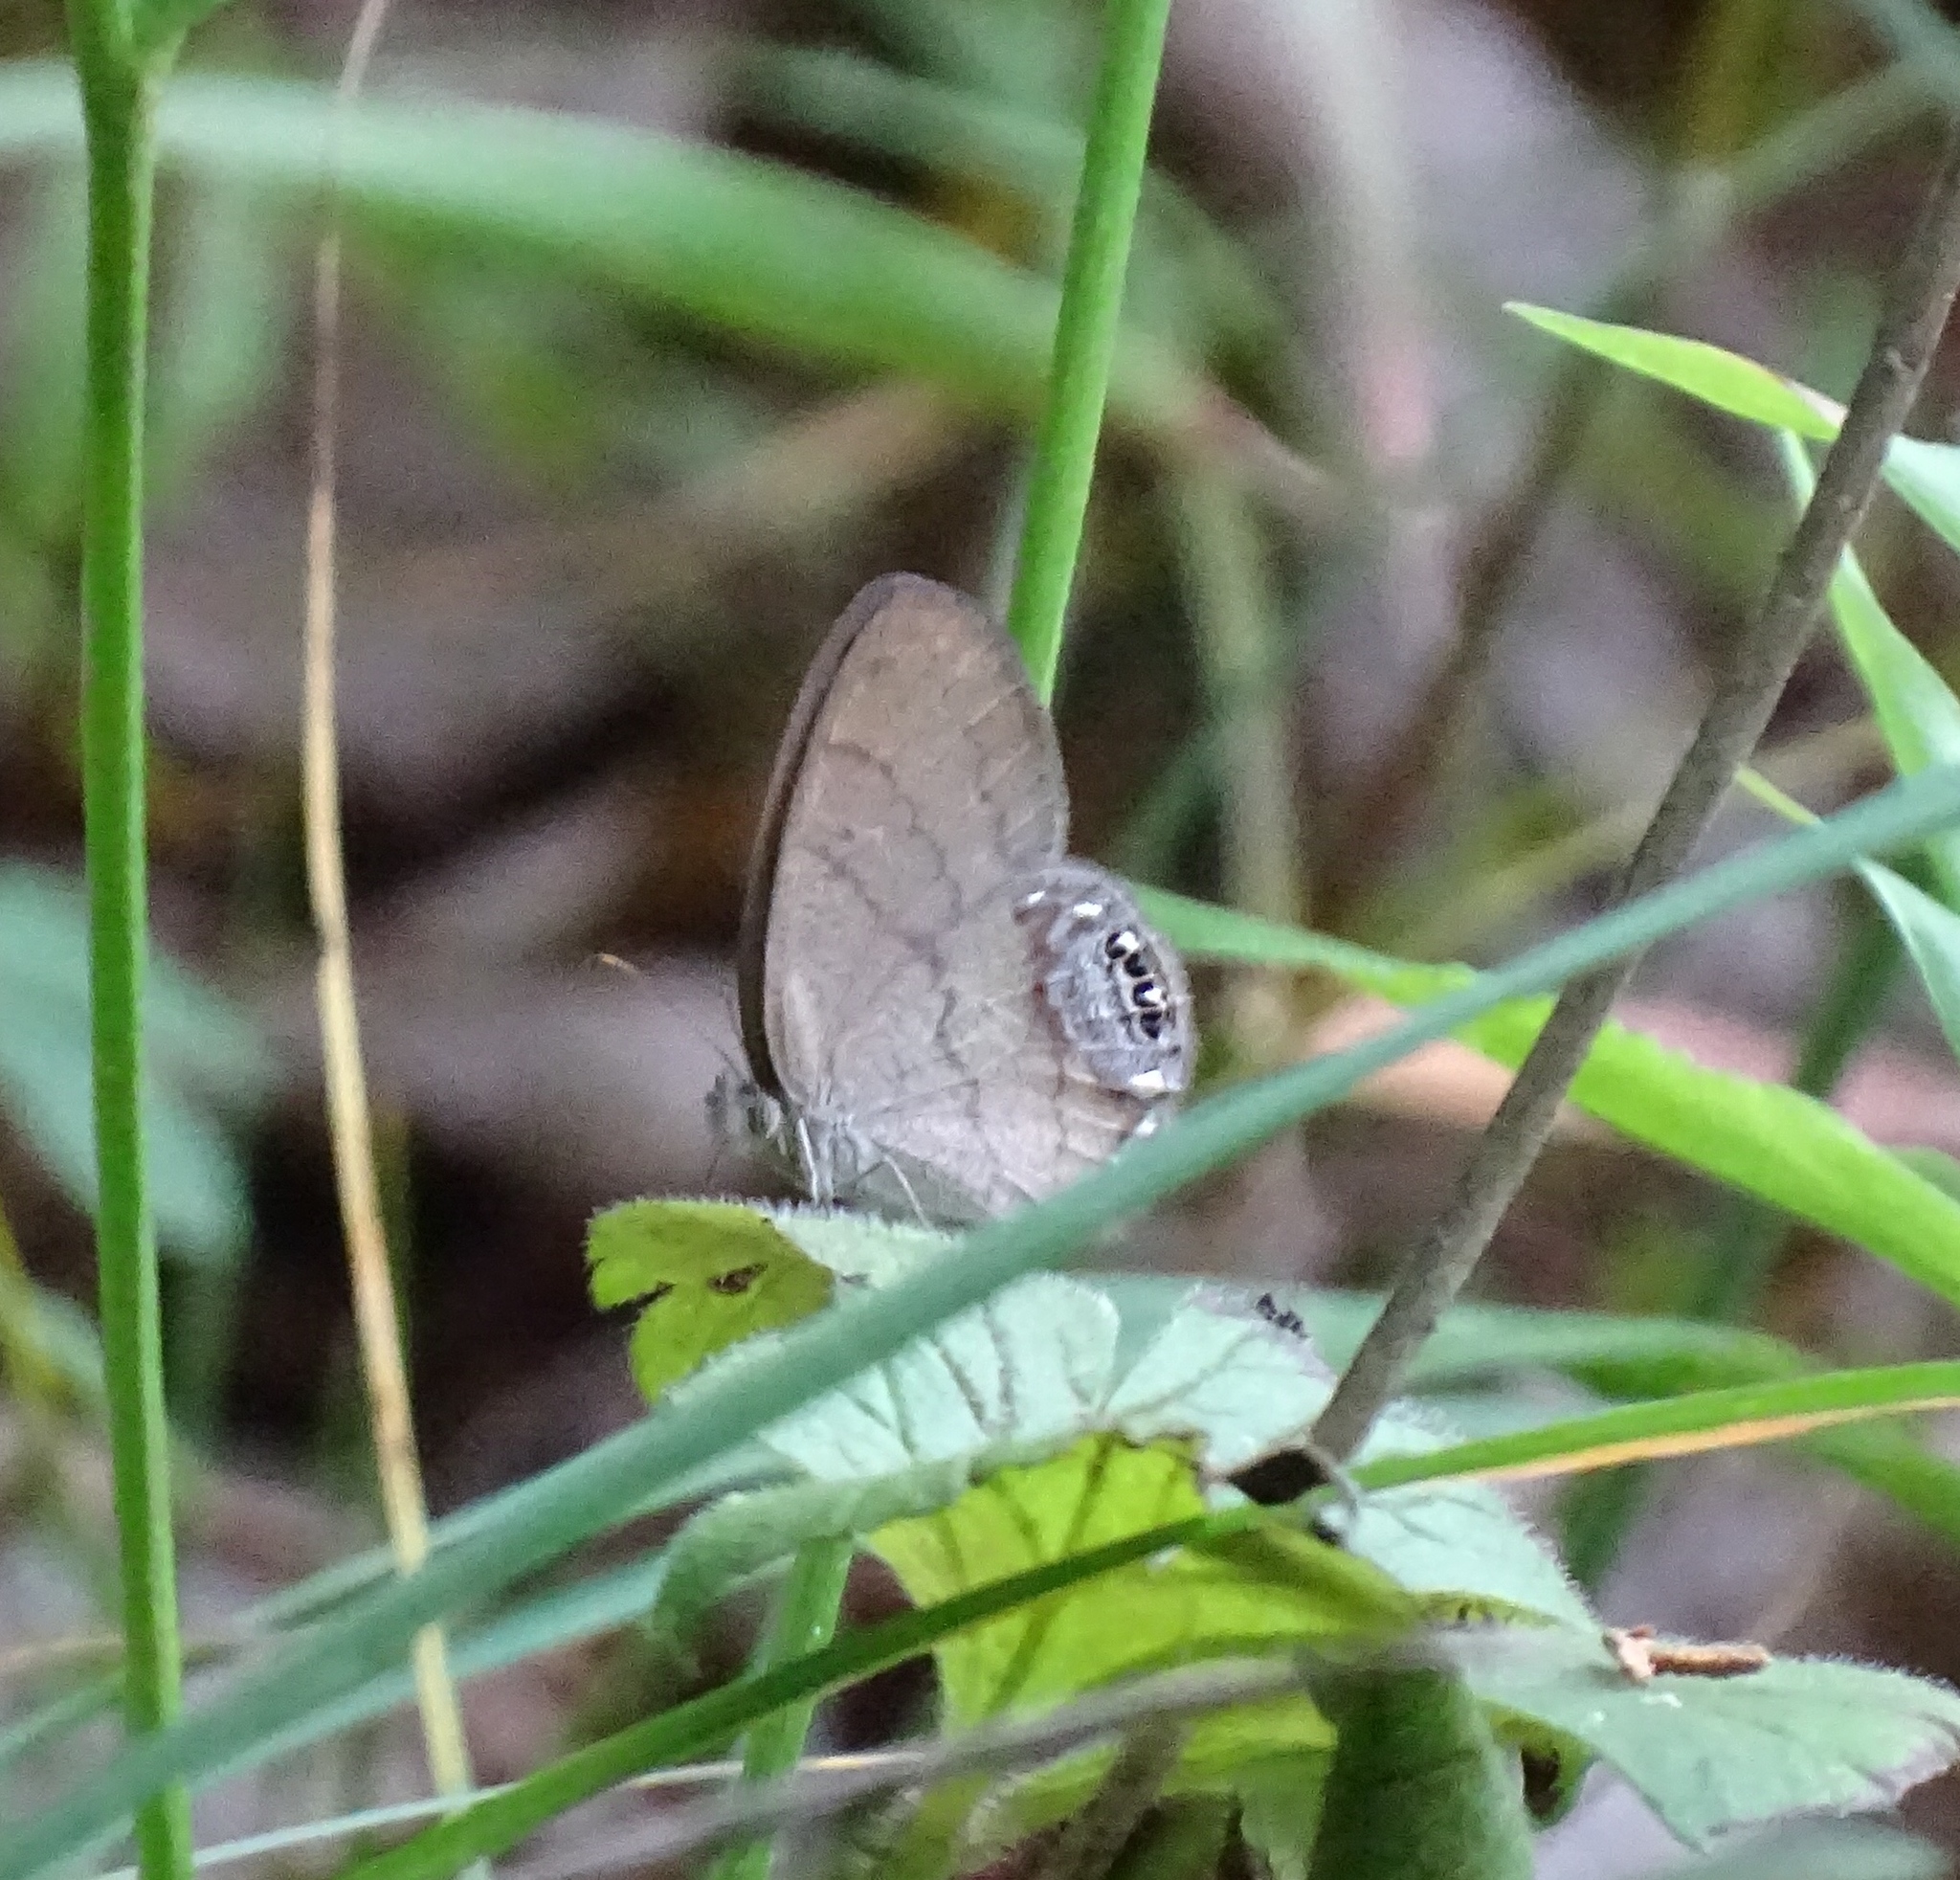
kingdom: Animalia
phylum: Arthropoda
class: Insecta
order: Lepidoptera
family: Nymphalidae
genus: Euptychia
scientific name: Euptychia cornelius
